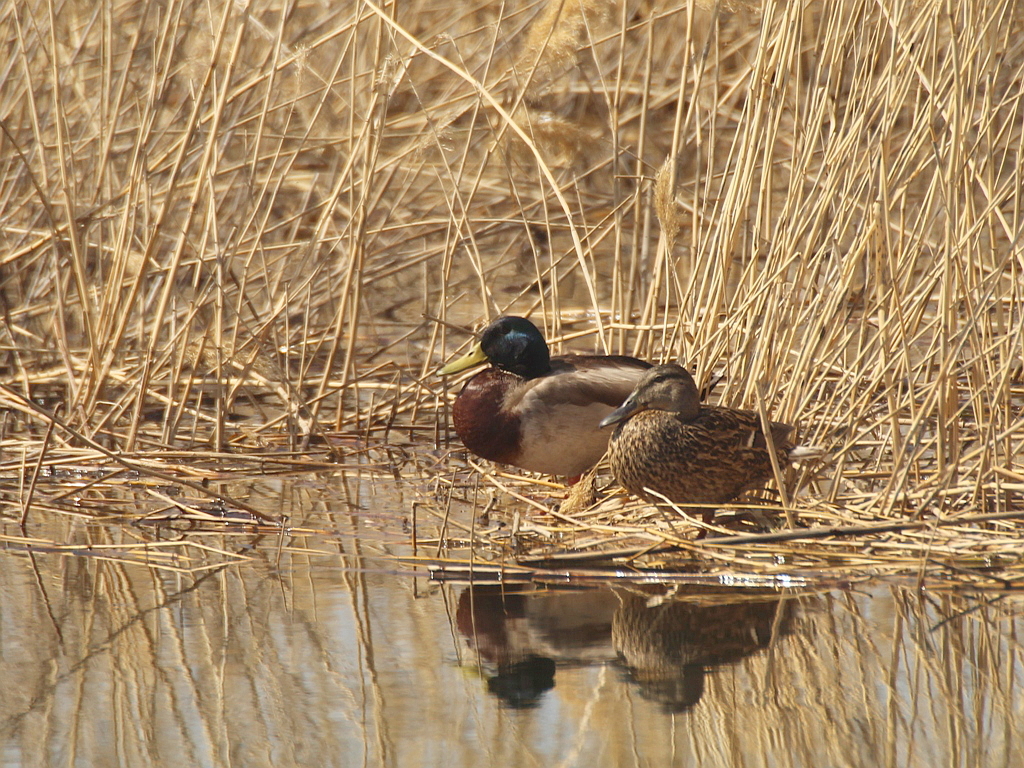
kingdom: Animalia
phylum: Chordata
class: Aves
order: Anseriformes
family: Anatidae
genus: Anas
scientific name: Anas platyrhynchos
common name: Mallard
